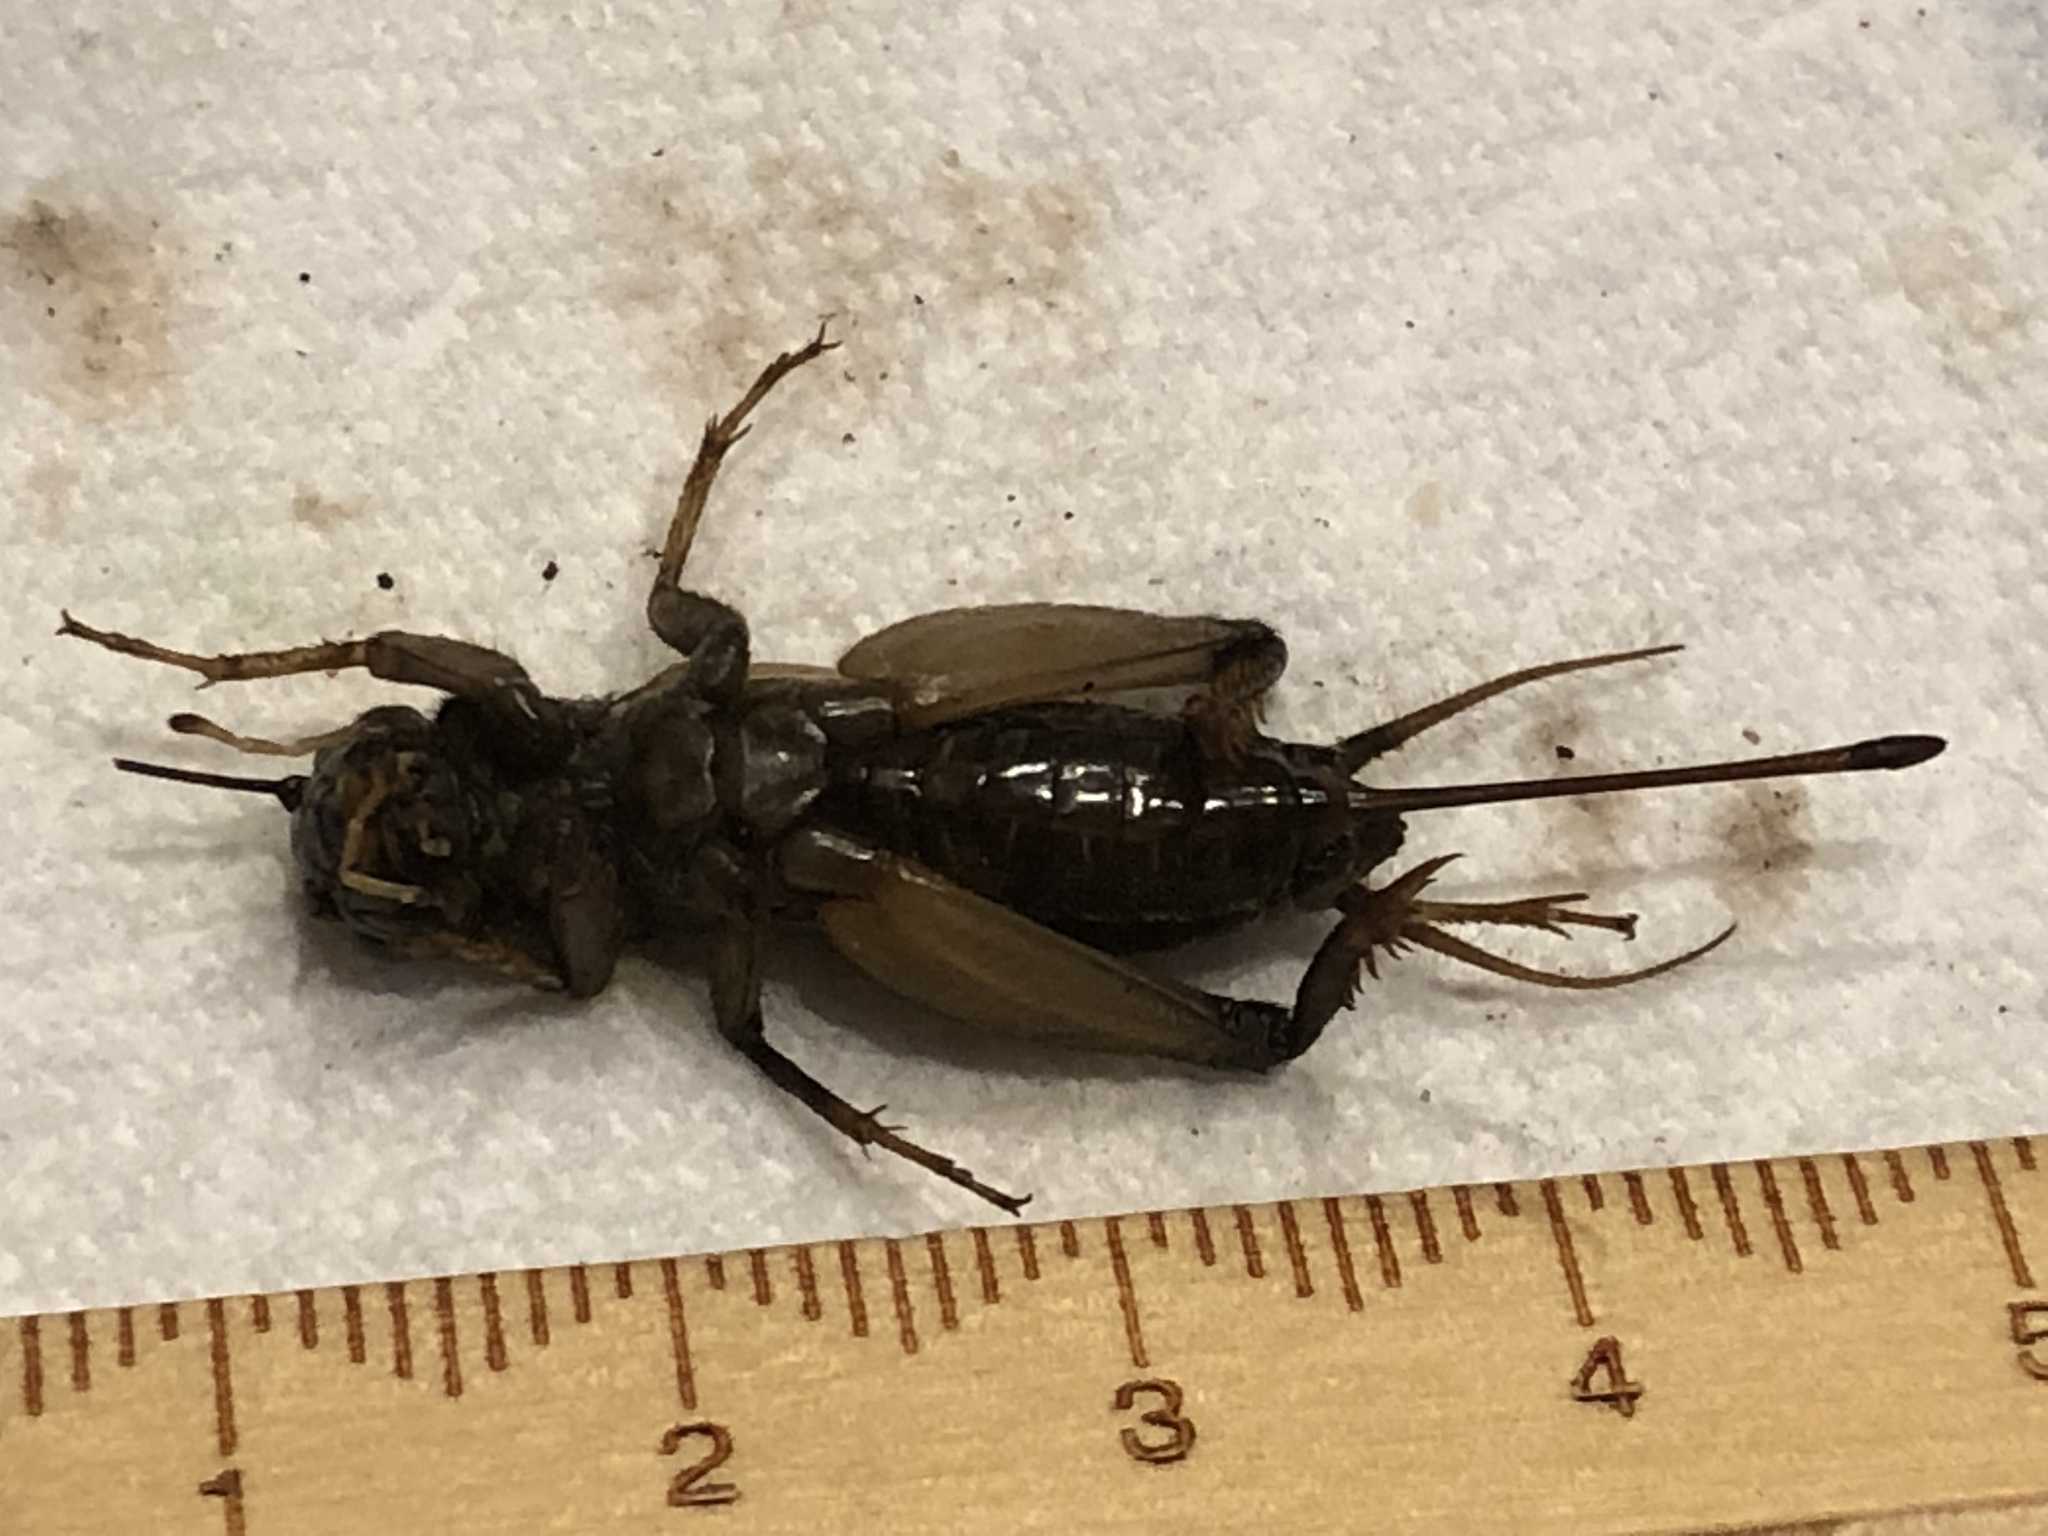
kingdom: Animalia
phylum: Arthropoda
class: Insecta
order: Orthoptera
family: Gryllidae
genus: Gryllus
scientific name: Gryllus
